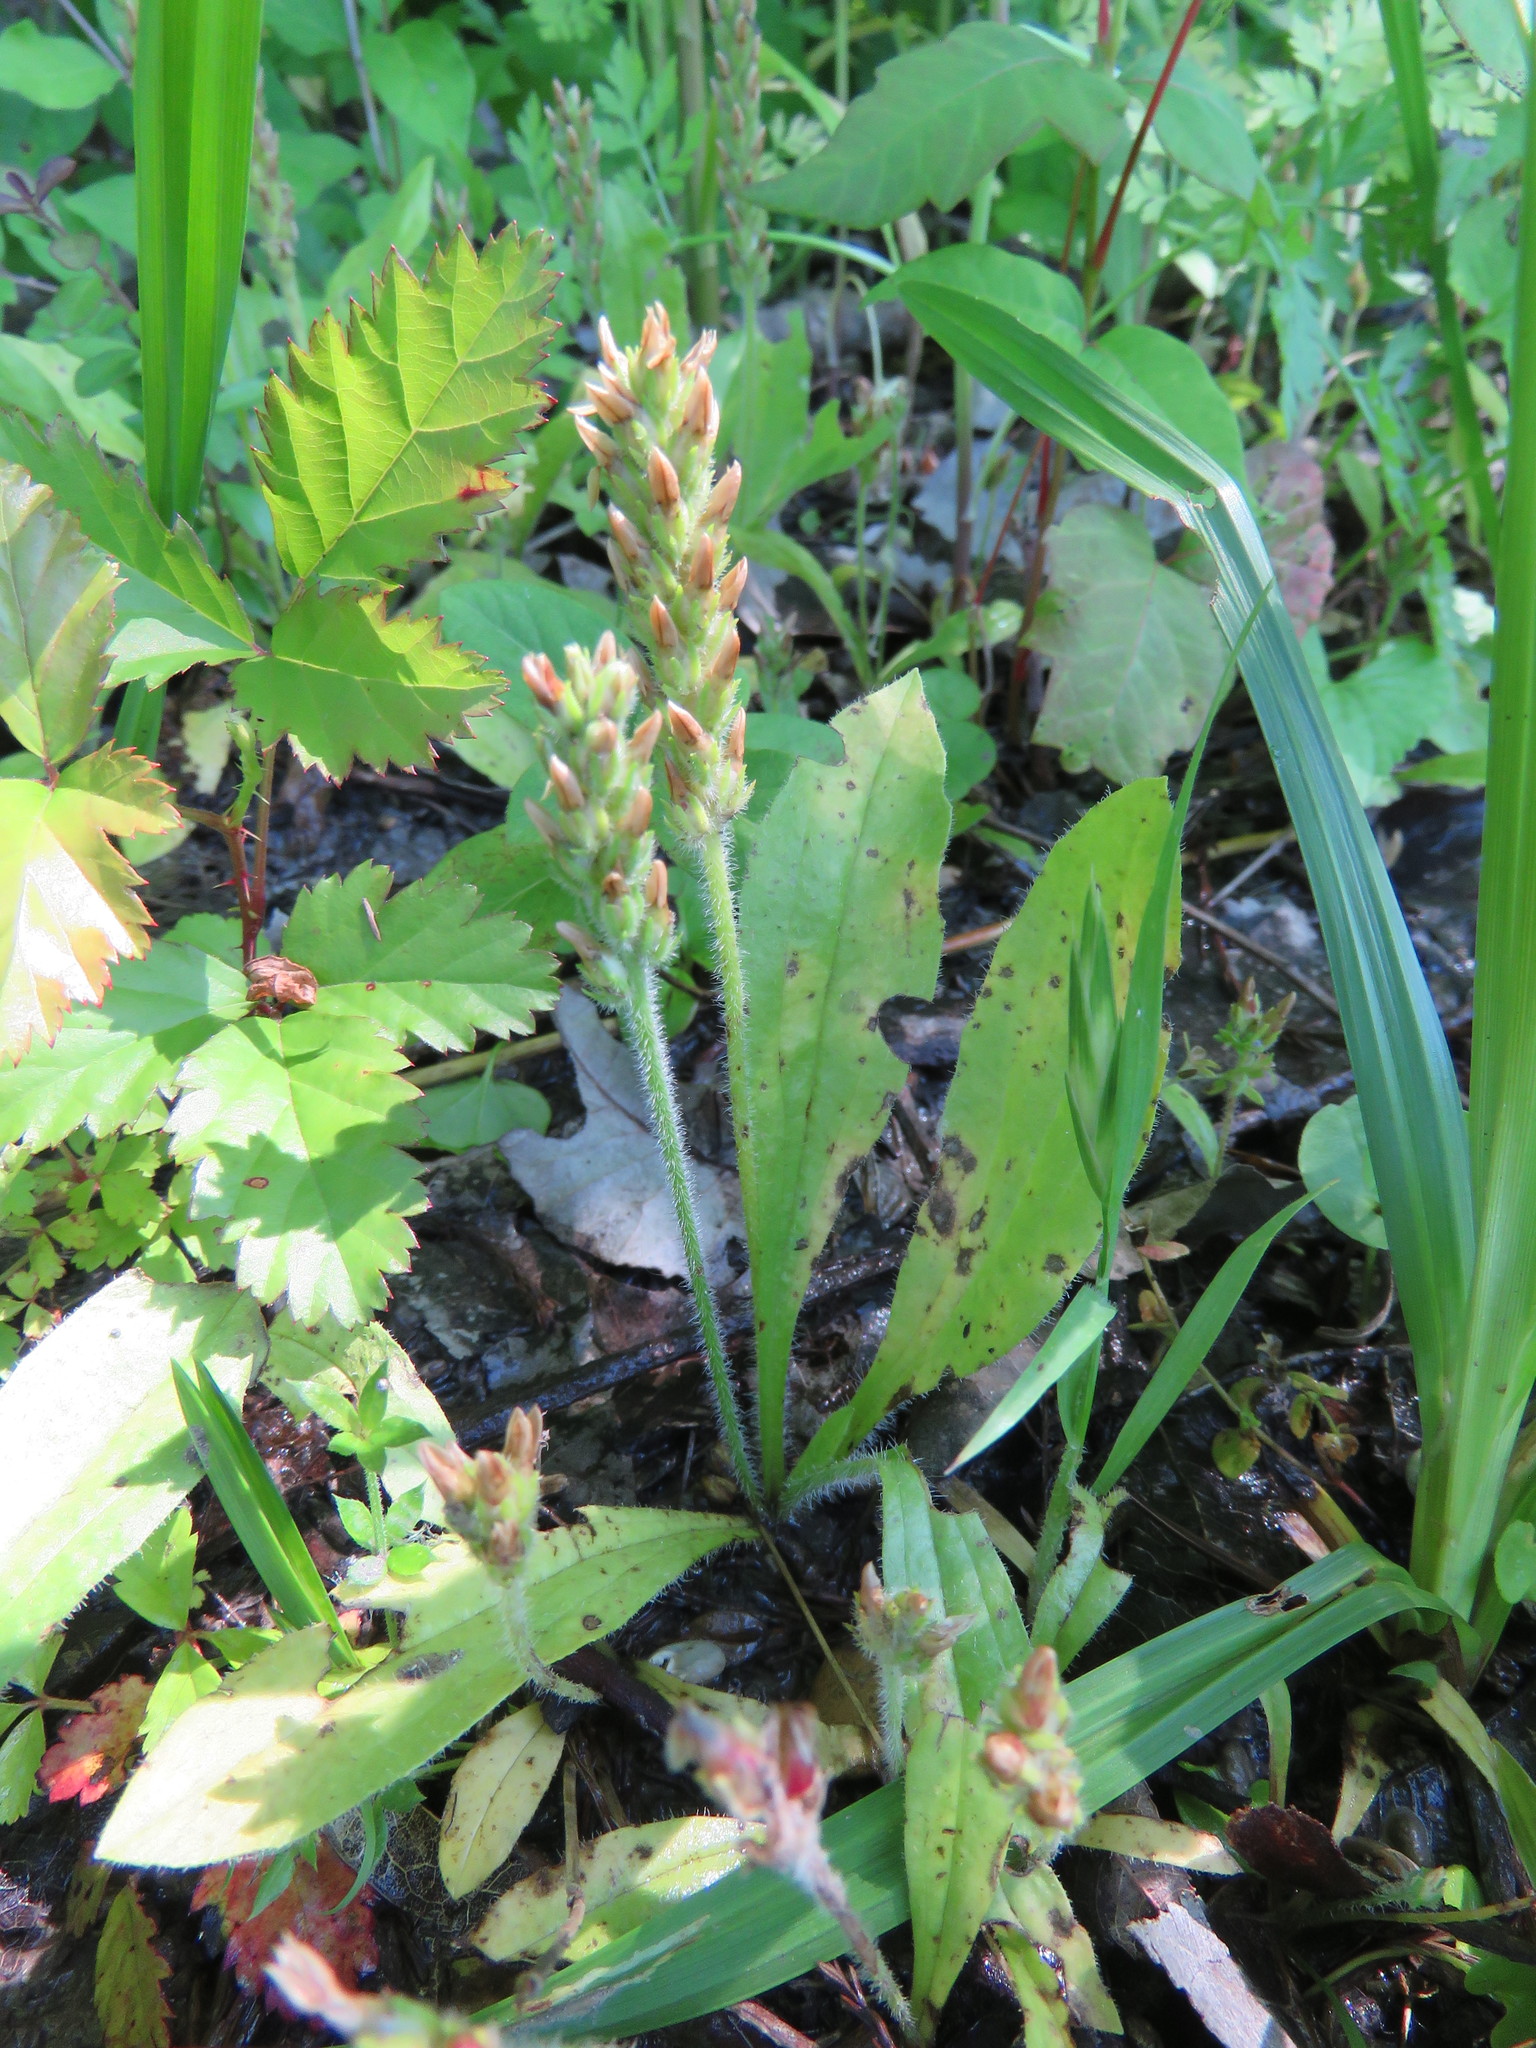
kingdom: Plantae
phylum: Tracheophyta
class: Magnoliopsida
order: Lamiales
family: Plantaginaceae
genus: Plantago
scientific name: Plantago rhodosperma
